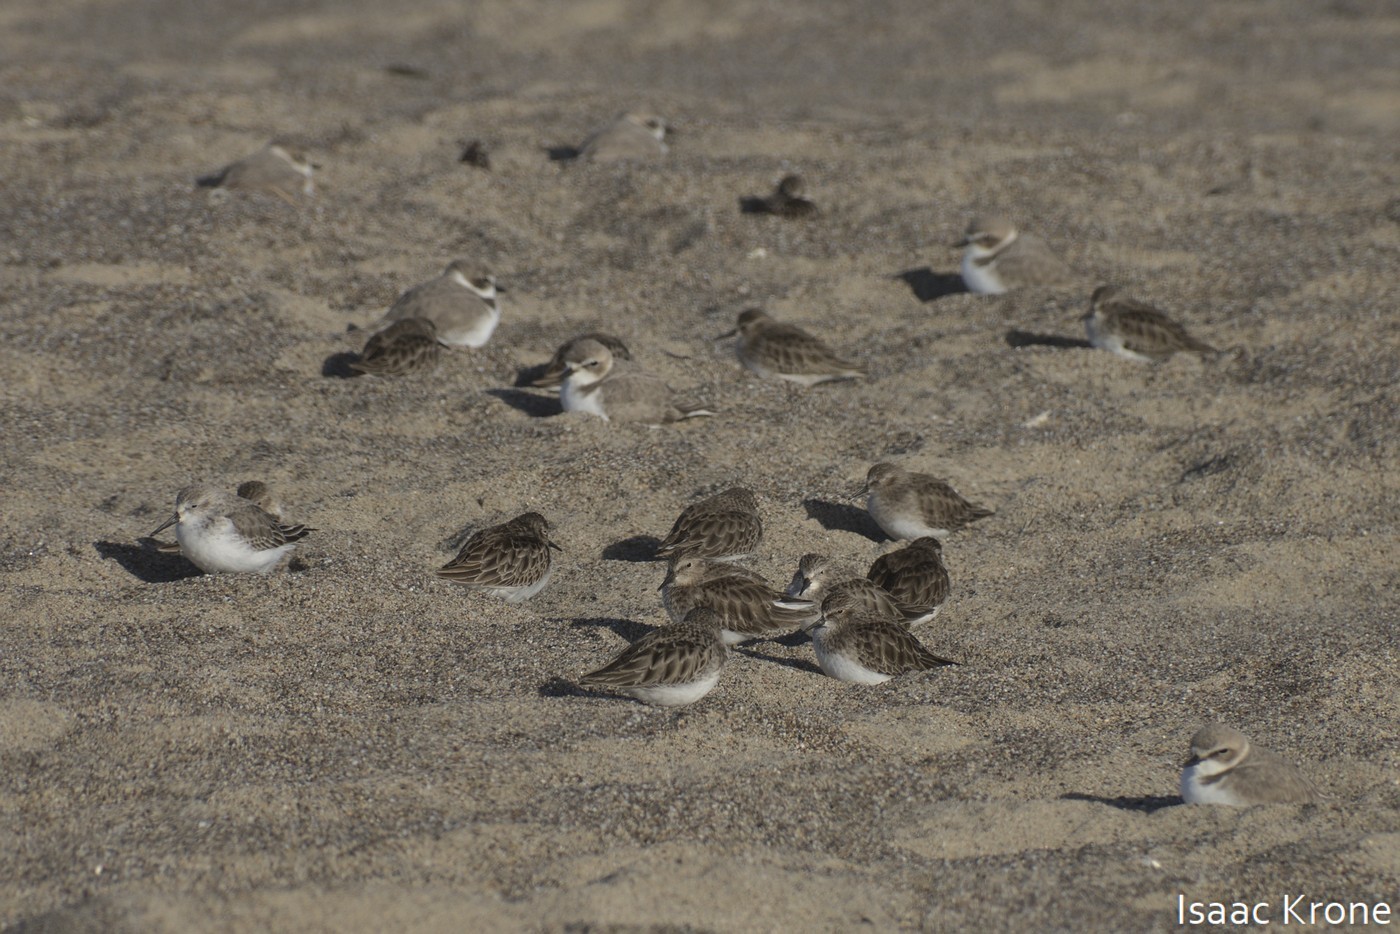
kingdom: Animalia
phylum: Chordata
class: Aves
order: Charadriiformes
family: Scolopacidae
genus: Calidris
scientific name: Calidris minutilla
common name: Least sandpiper
